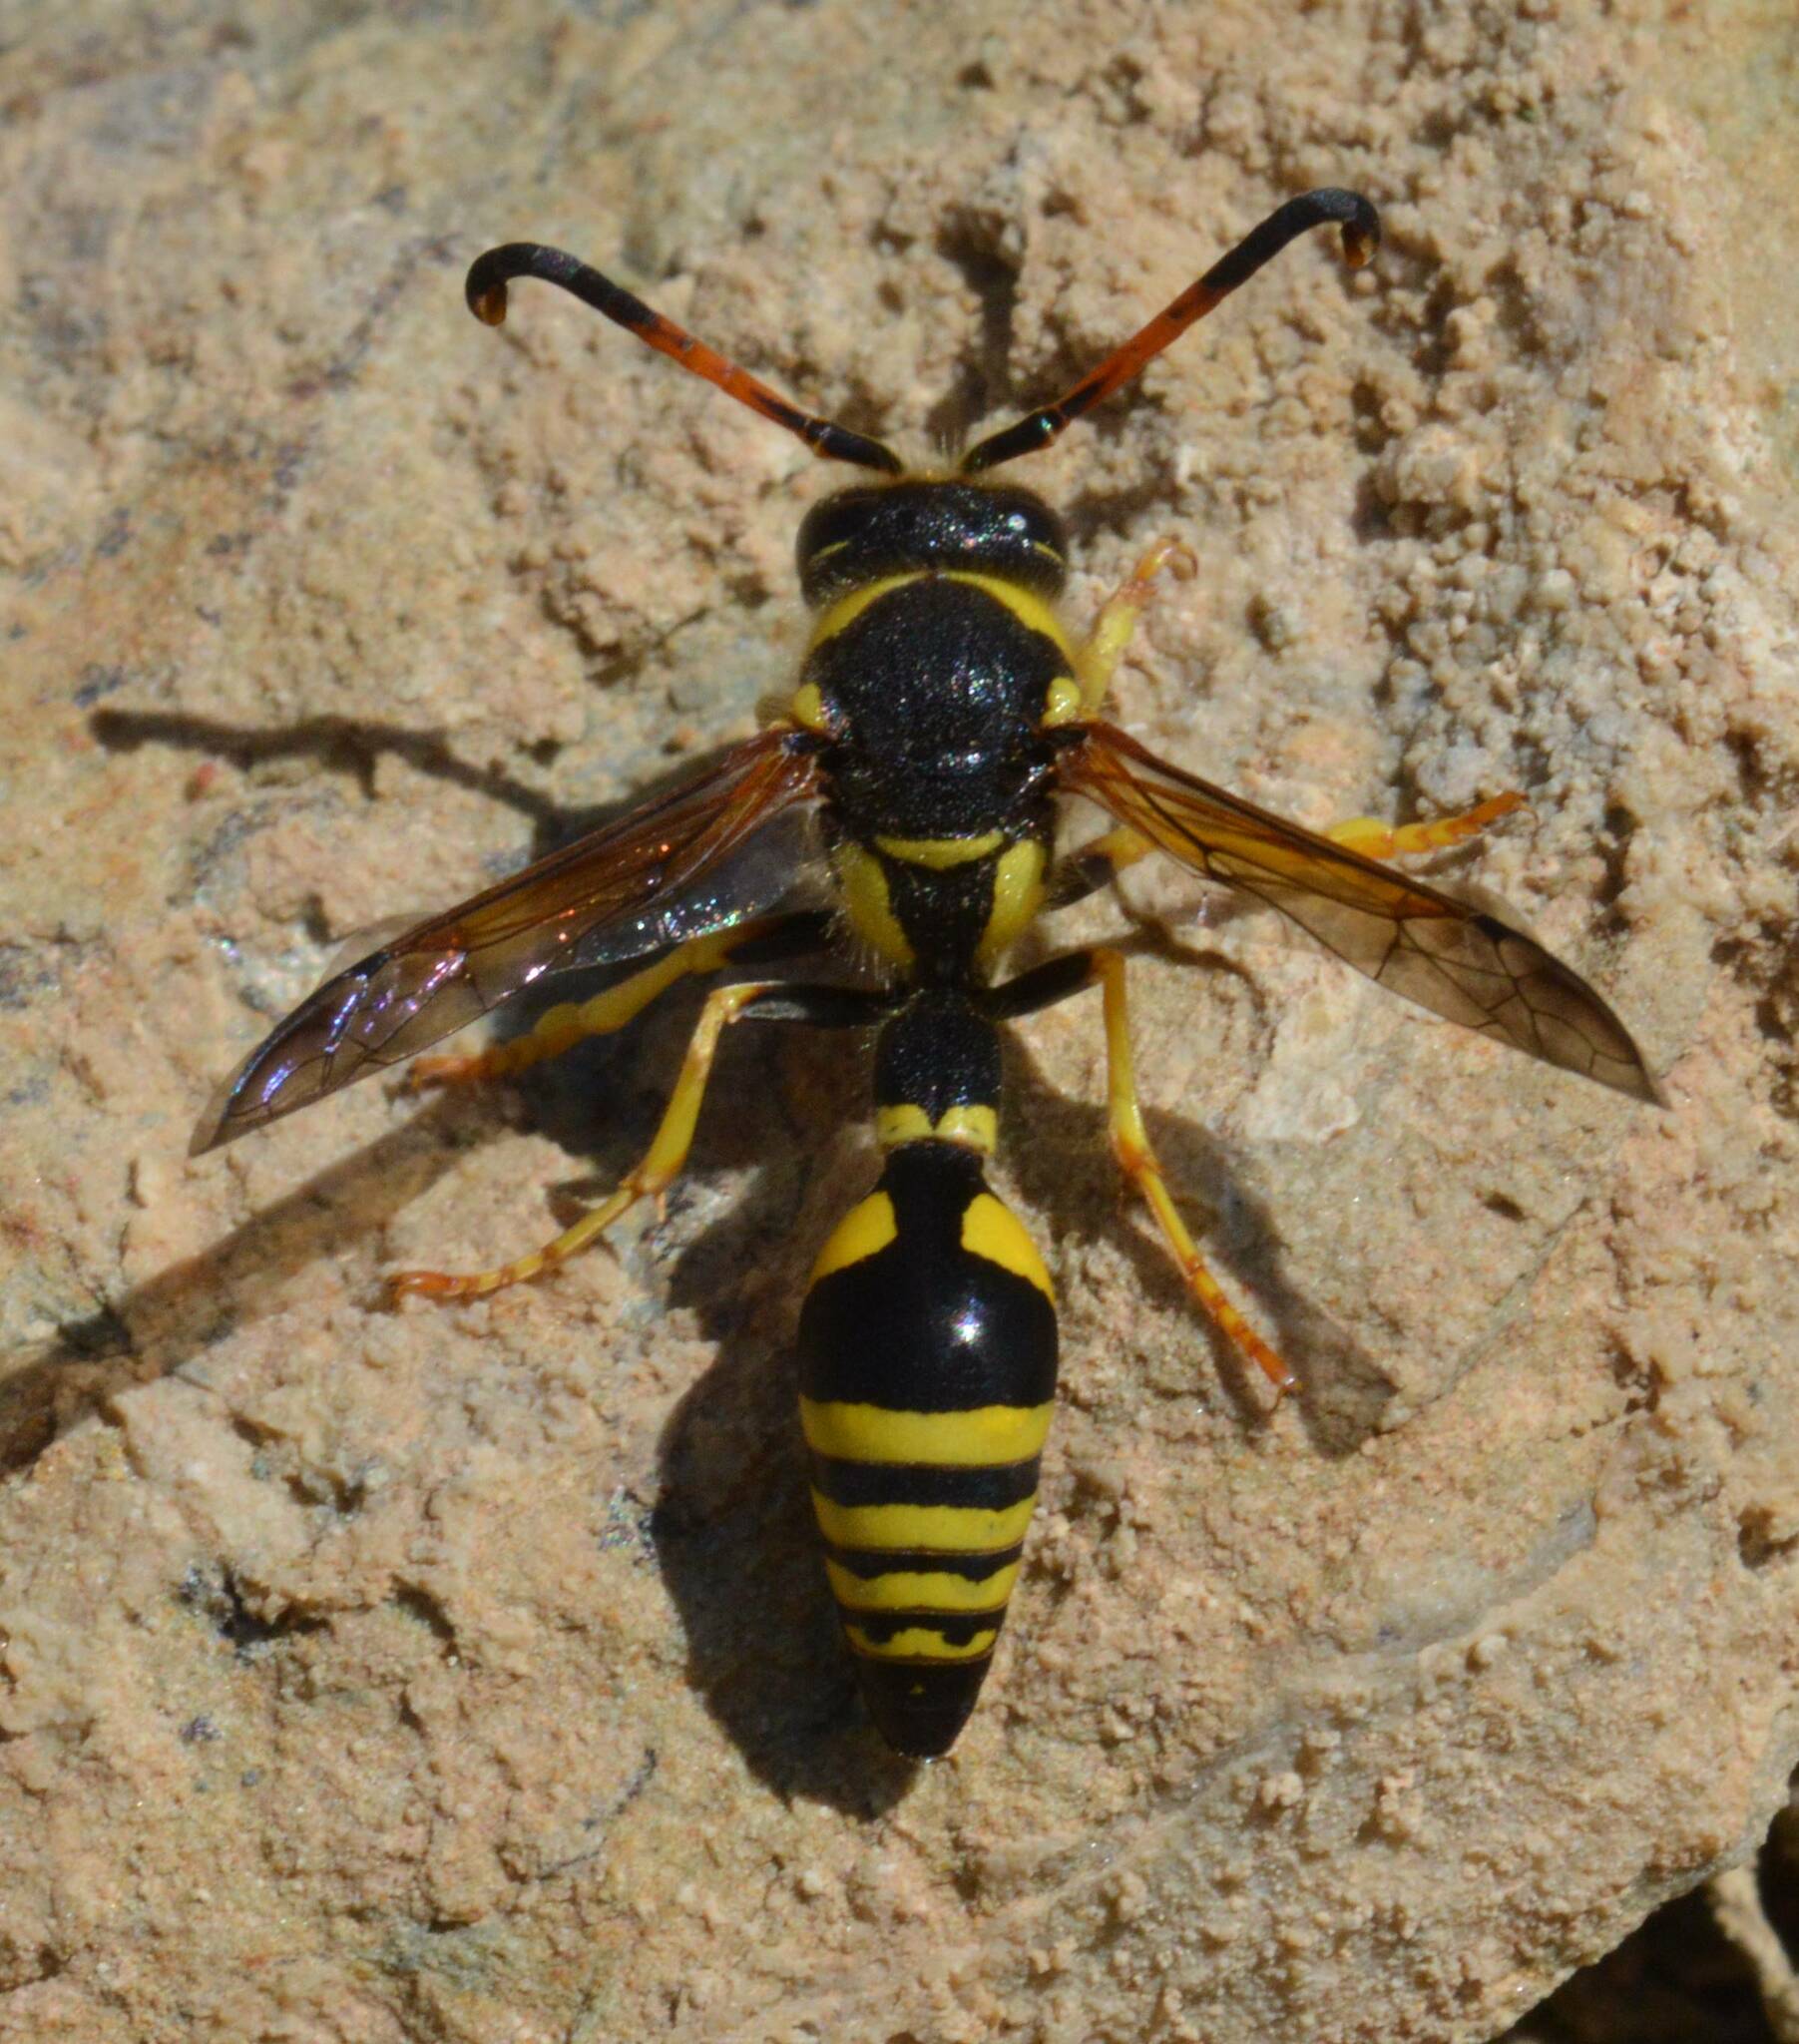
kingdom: Animalia
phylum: Arthropoda
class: Insecta
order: Hymenoptera
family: Eumenidae
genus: Katamenes
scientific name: Katamenes algirus
